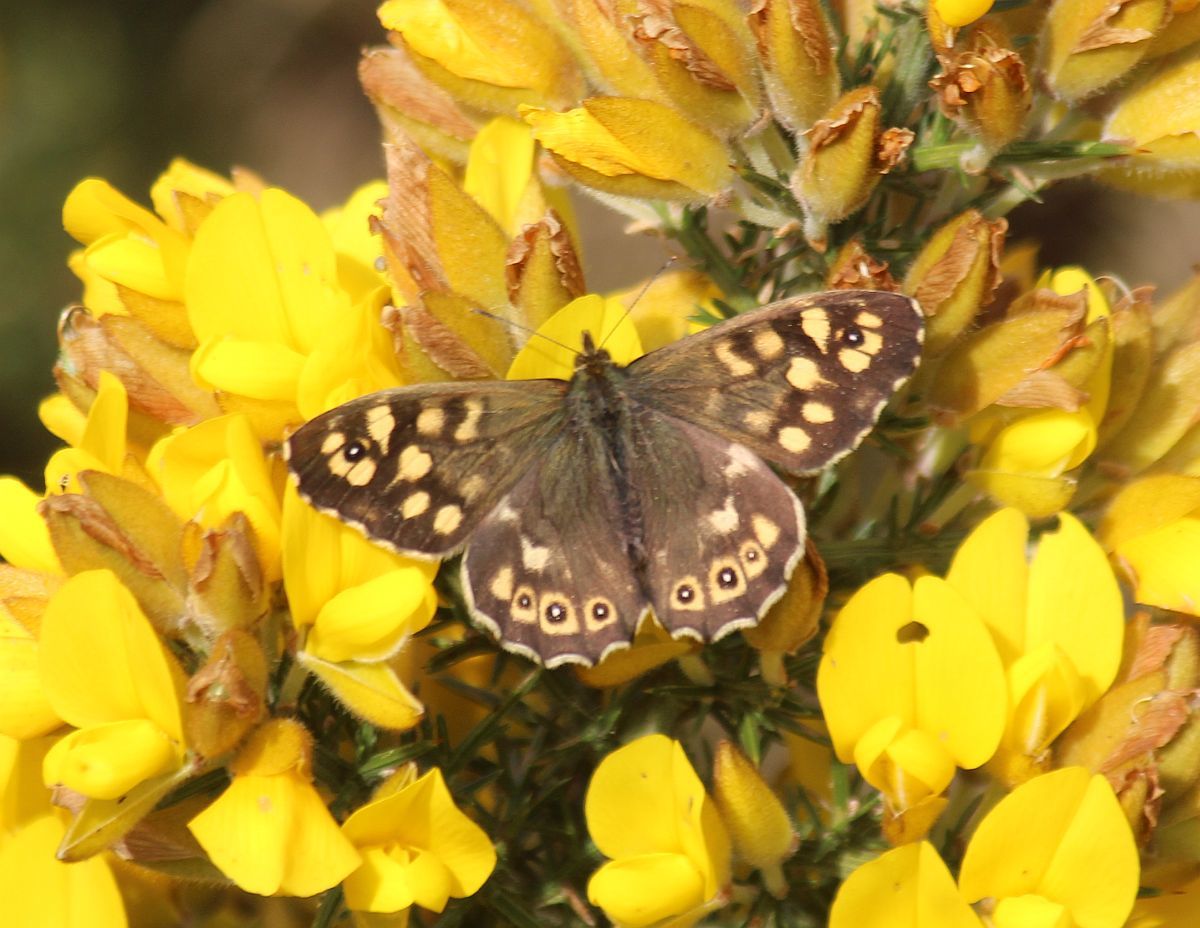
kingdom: Animalia
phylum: Arthropoda
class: Insecta
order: Lepidoptera
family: Nymphalidae
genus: Pararge
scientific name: Pararge aegeria
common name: Speckled wood
